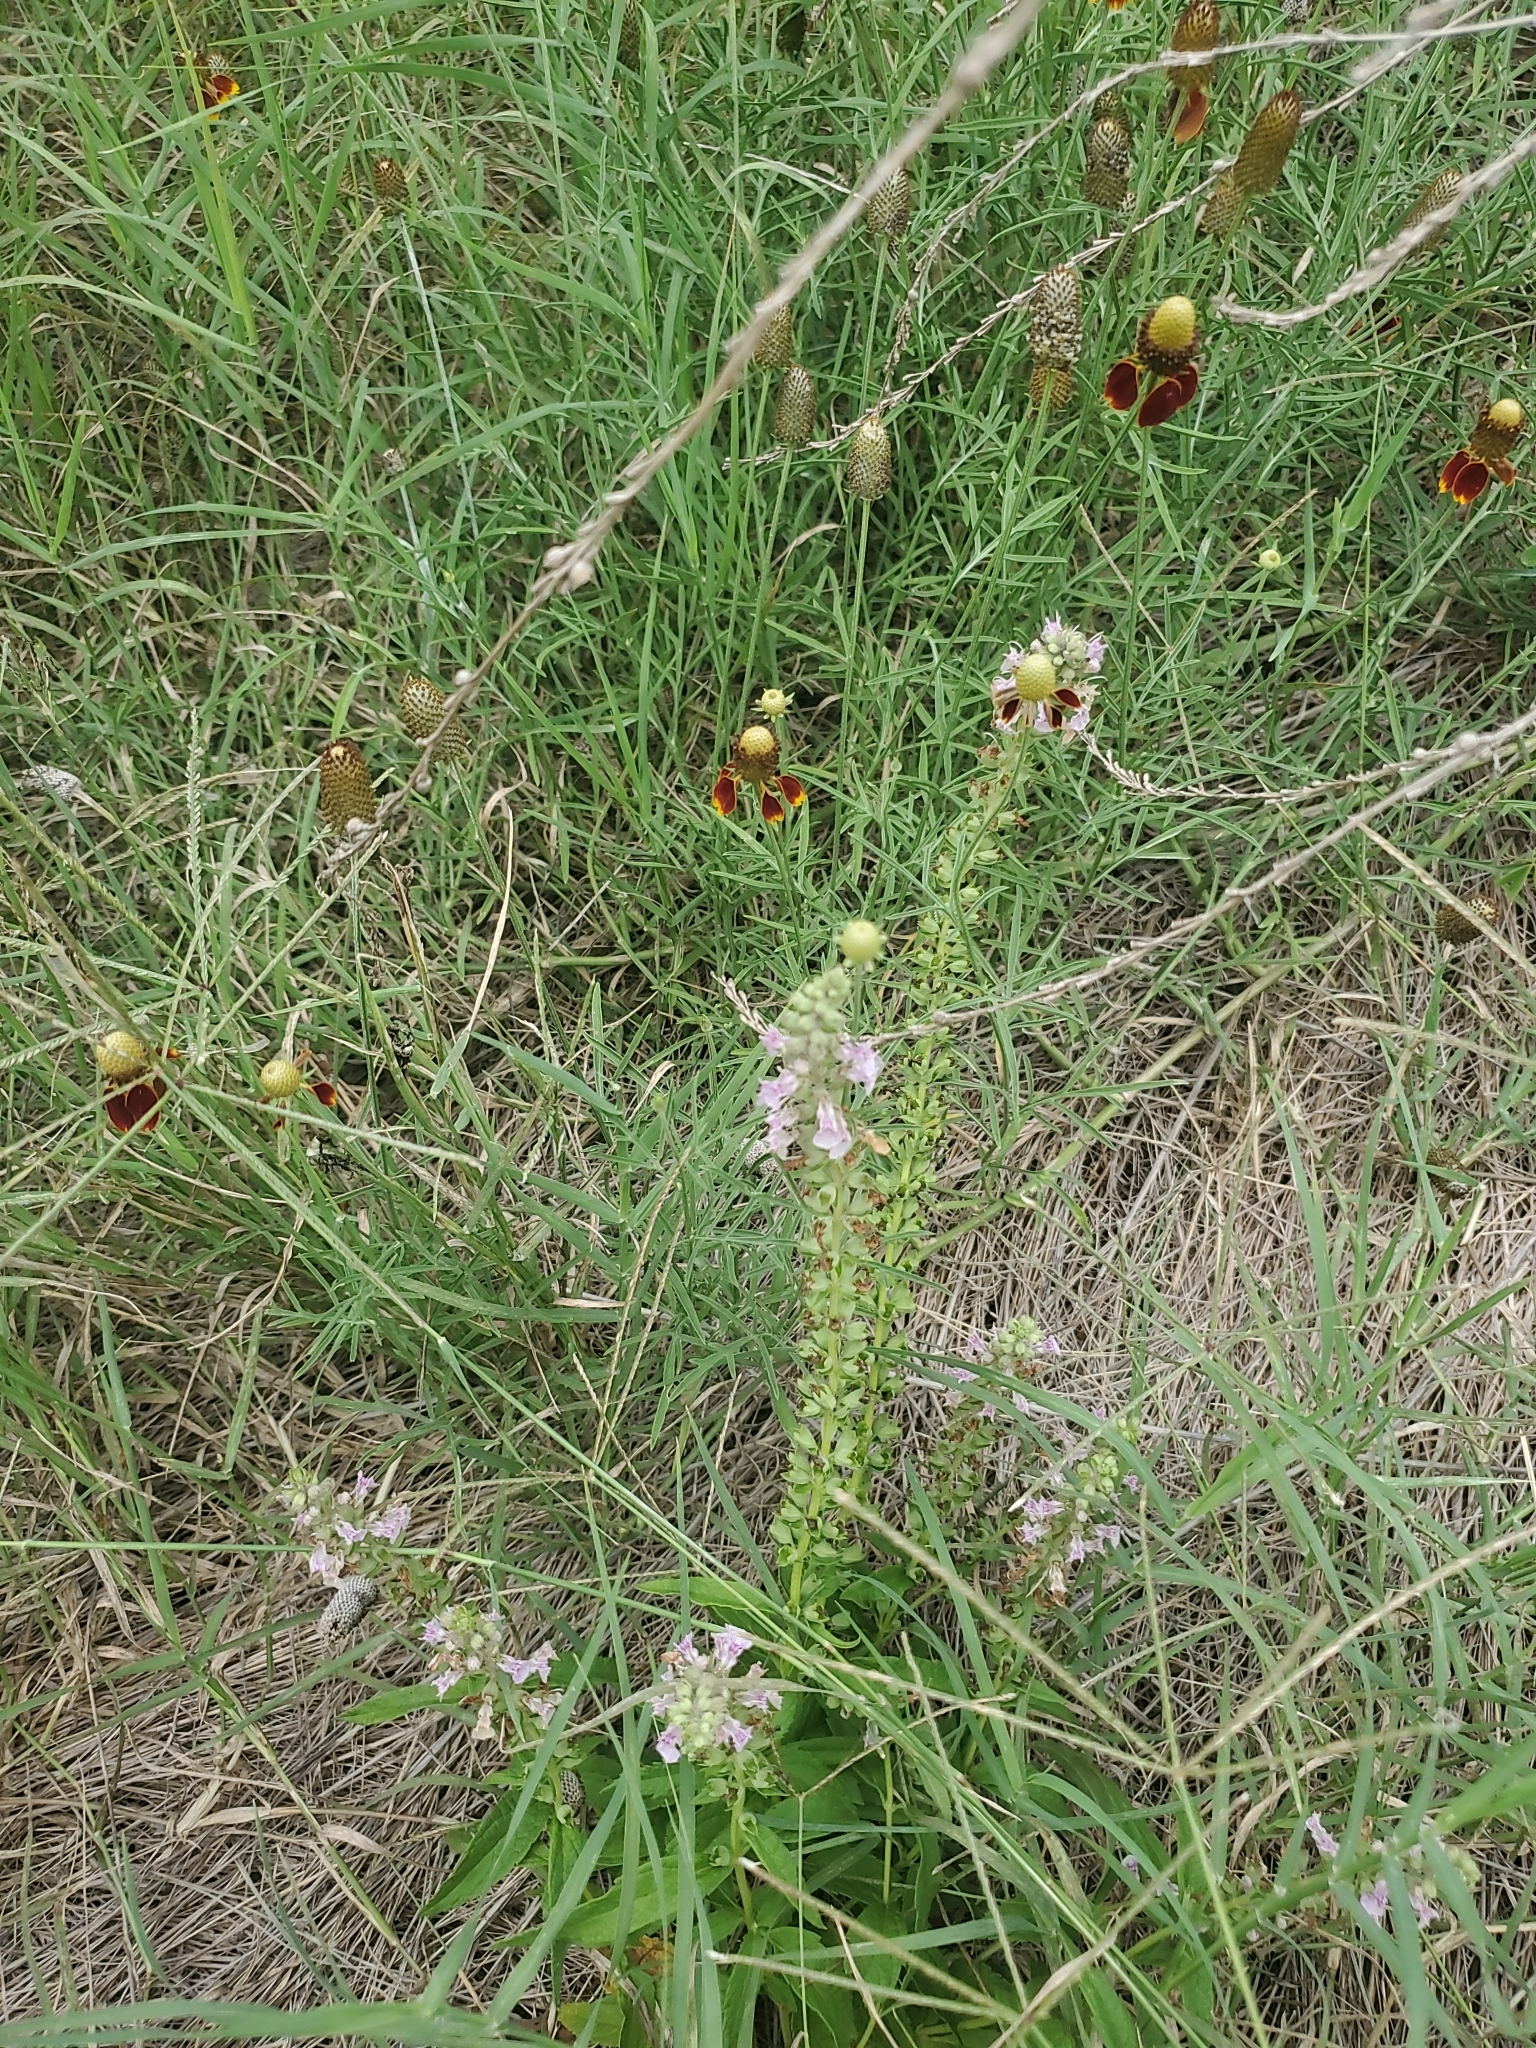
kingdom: Plantae
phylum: Tracheophyta
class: Magnoliopsida
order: Lamiales
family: Lamiaceae
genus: Teucrium
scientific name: Teucrium canadense
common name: American germander
